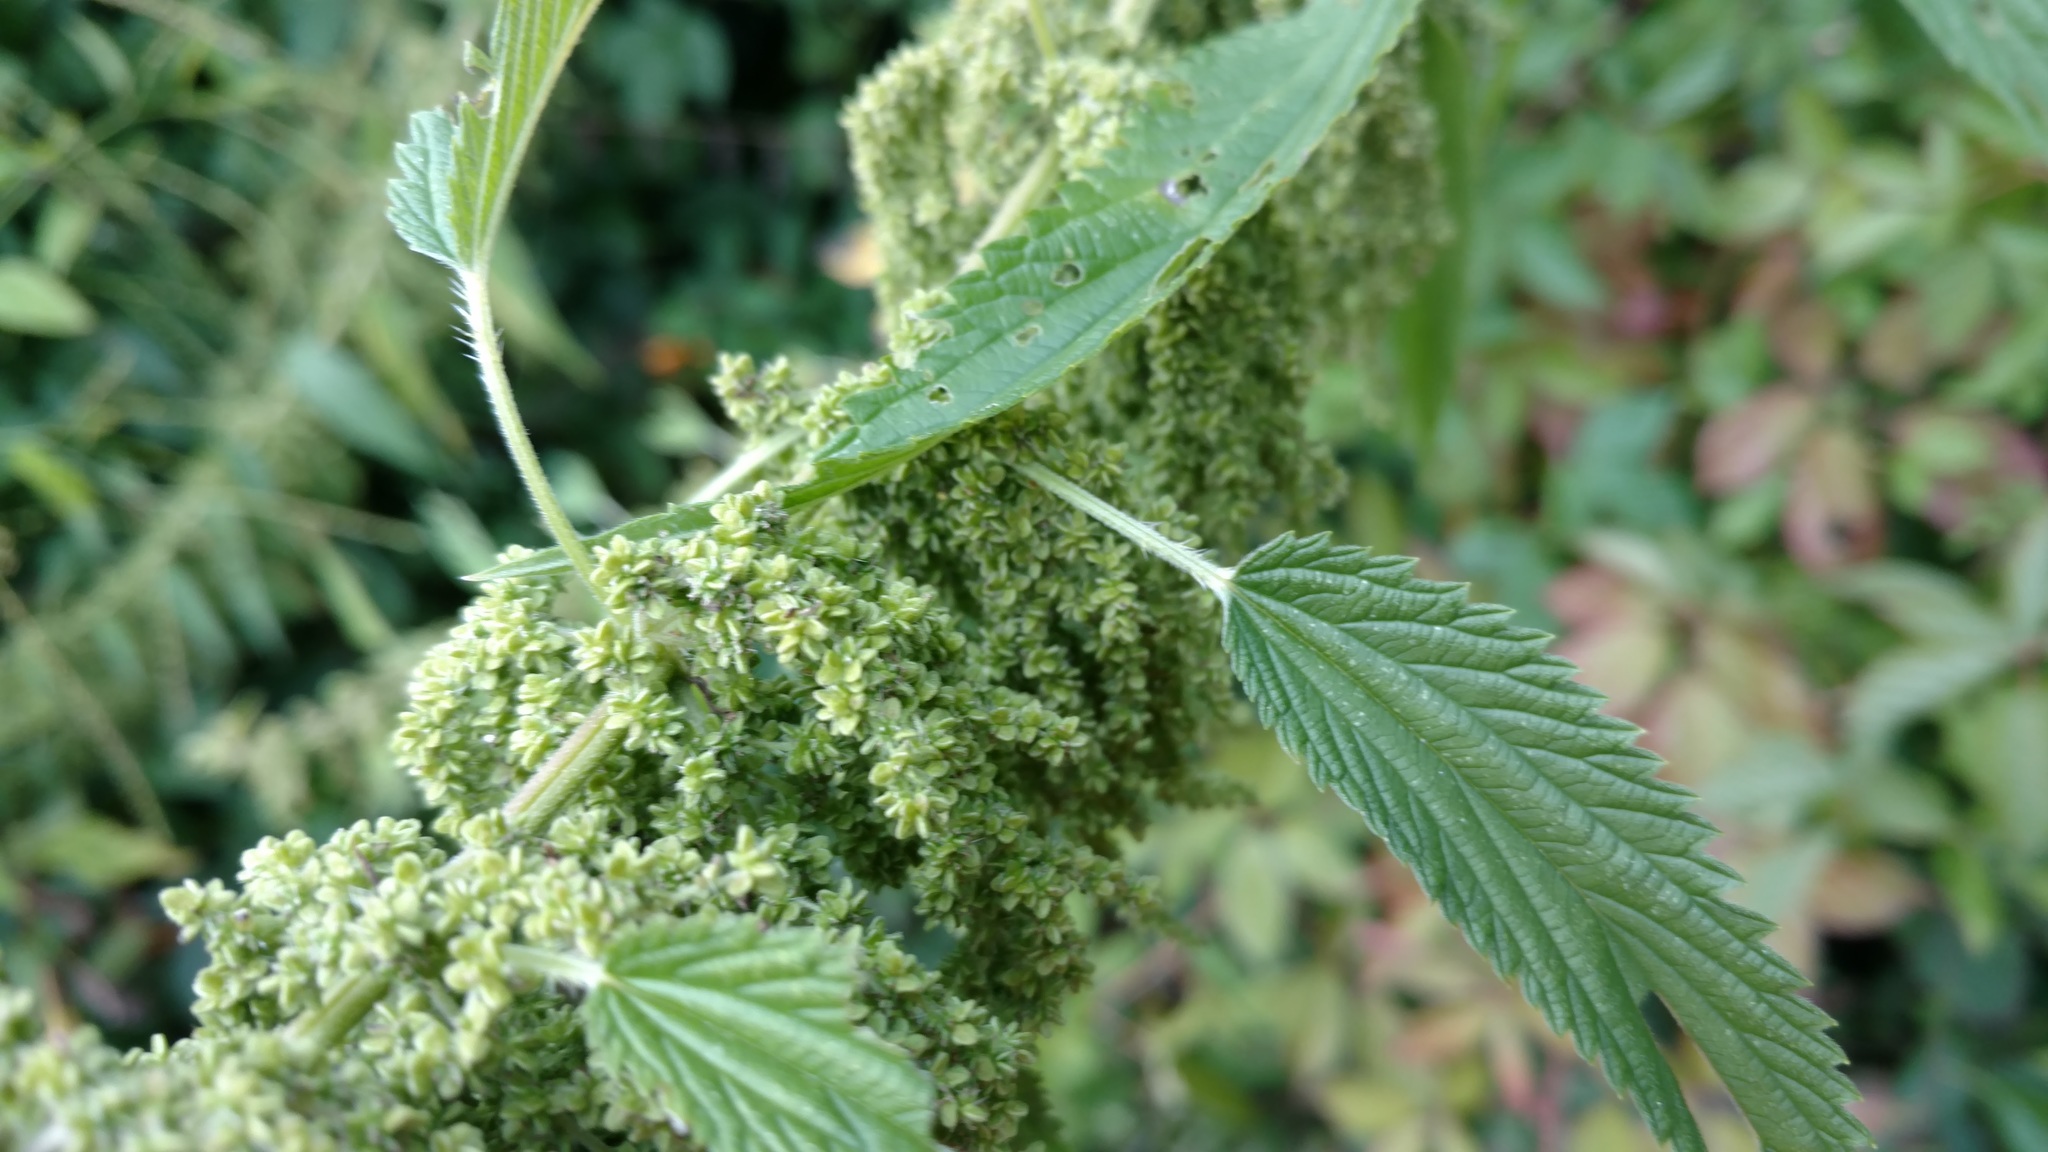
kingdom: Plantae
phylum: Tracheophyta
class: Magnoliopsida
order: Rosales
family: Urticaceae
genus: Urtica
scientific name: Urtica dioica
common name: Common nettle
